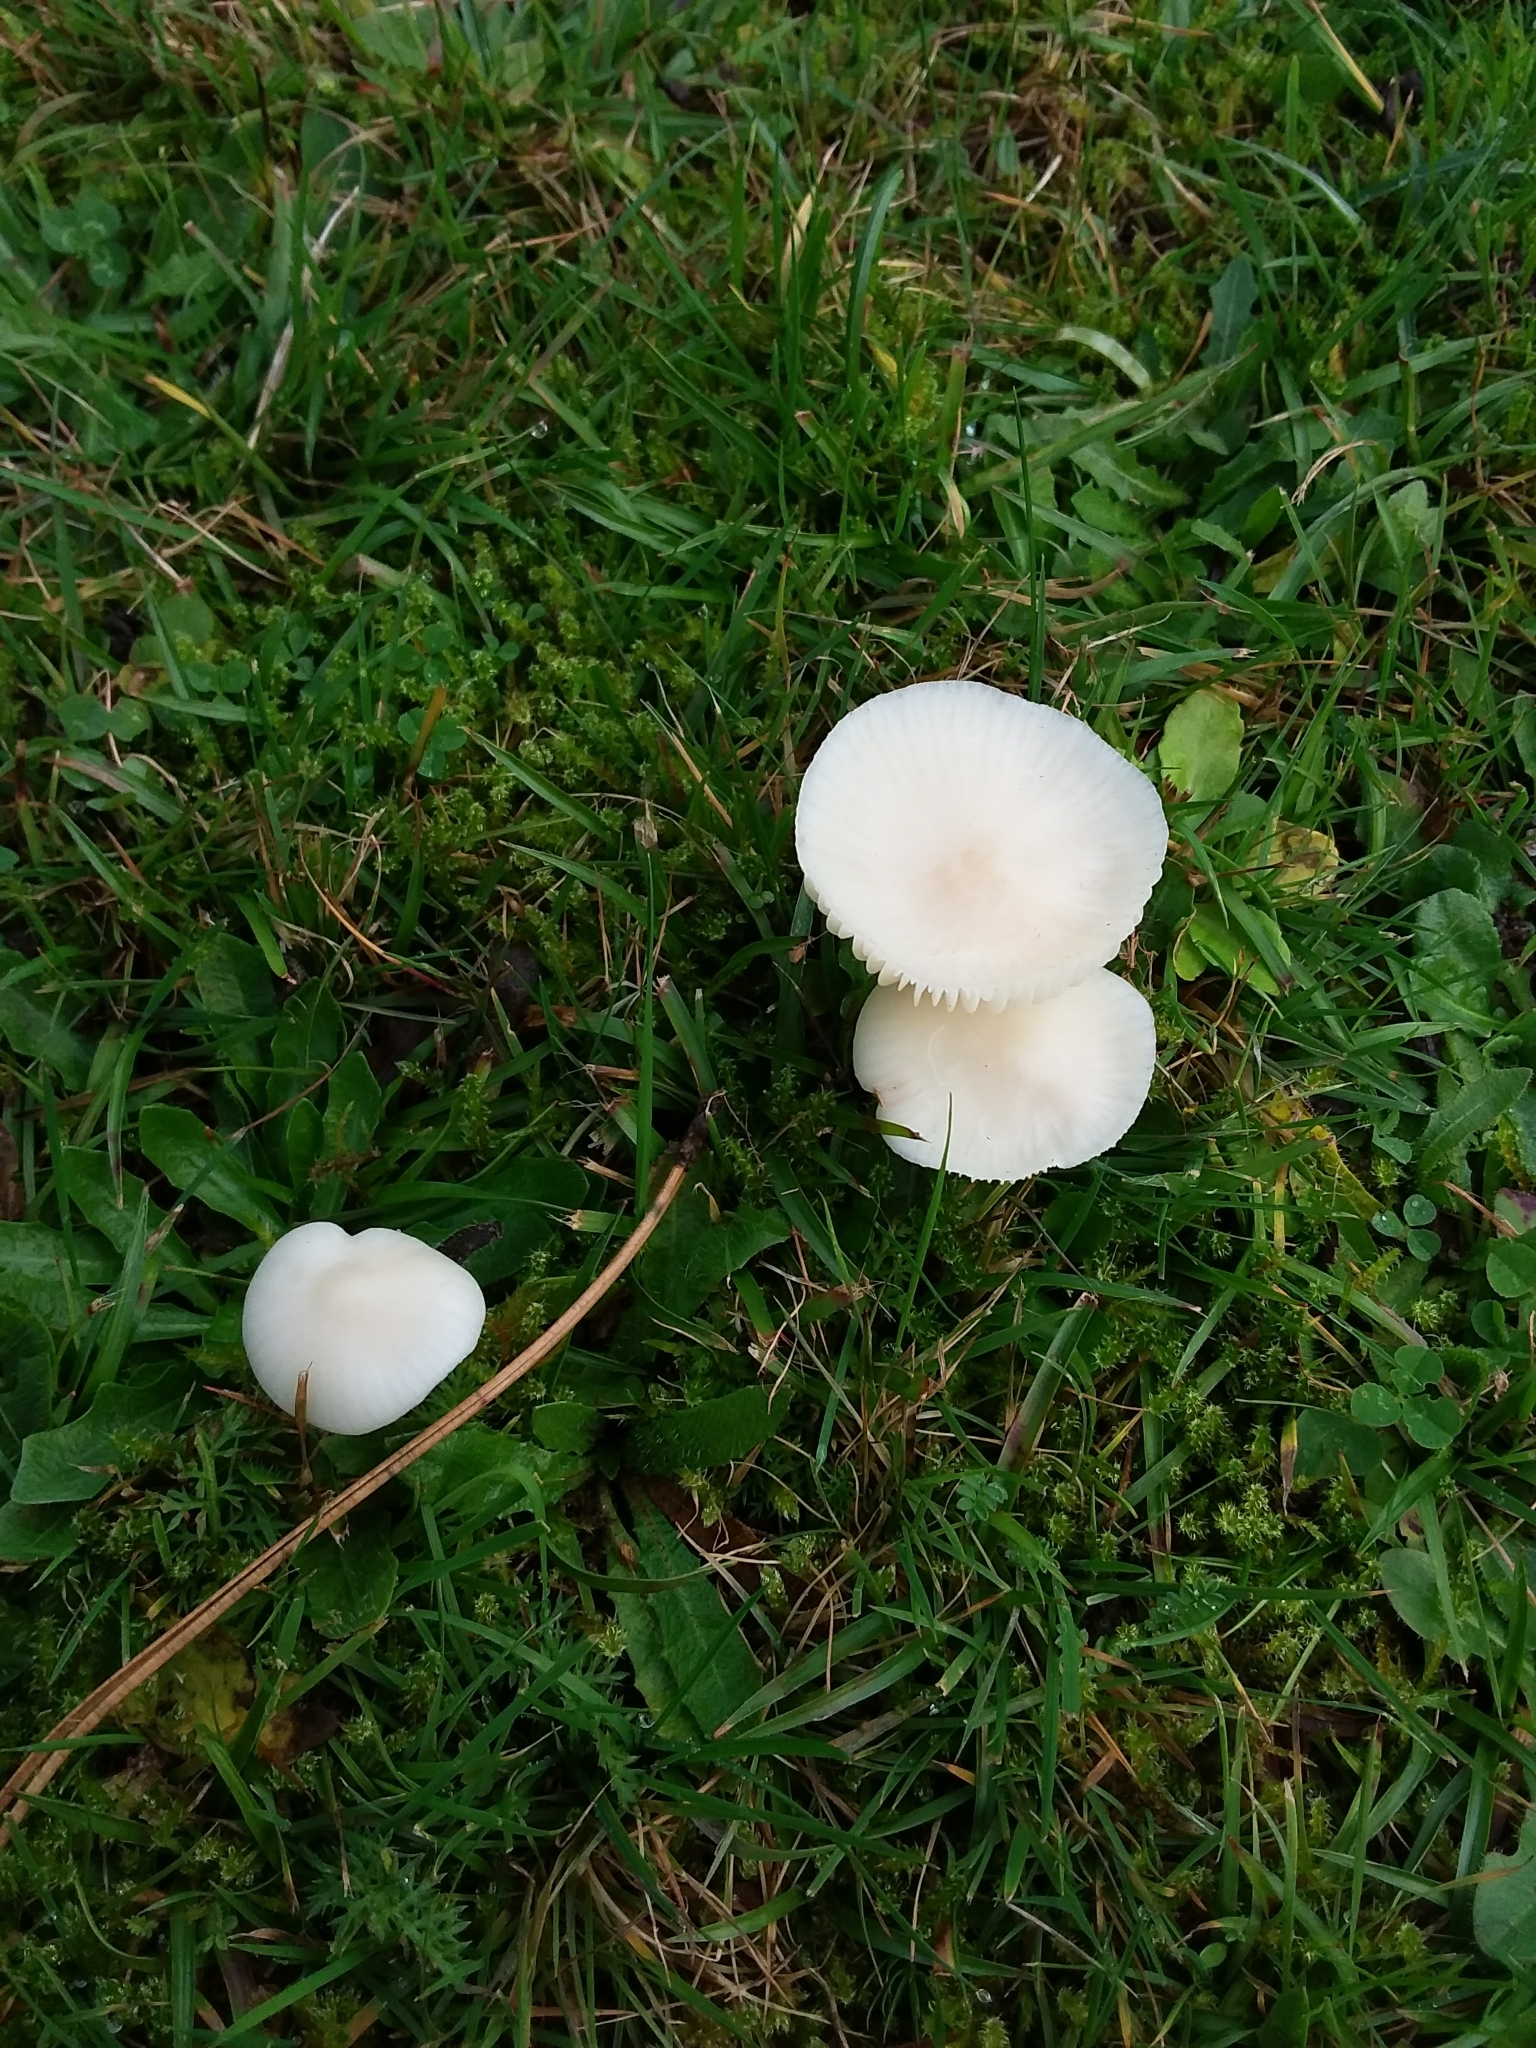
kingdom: Fungi
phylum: Basidiomycota
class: Agaricomycetes
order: Agaricales
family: Hygrophoraceae
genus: Cuphophyllus
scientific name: Cuphophyllus virgineus
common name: Snowy waxcap
